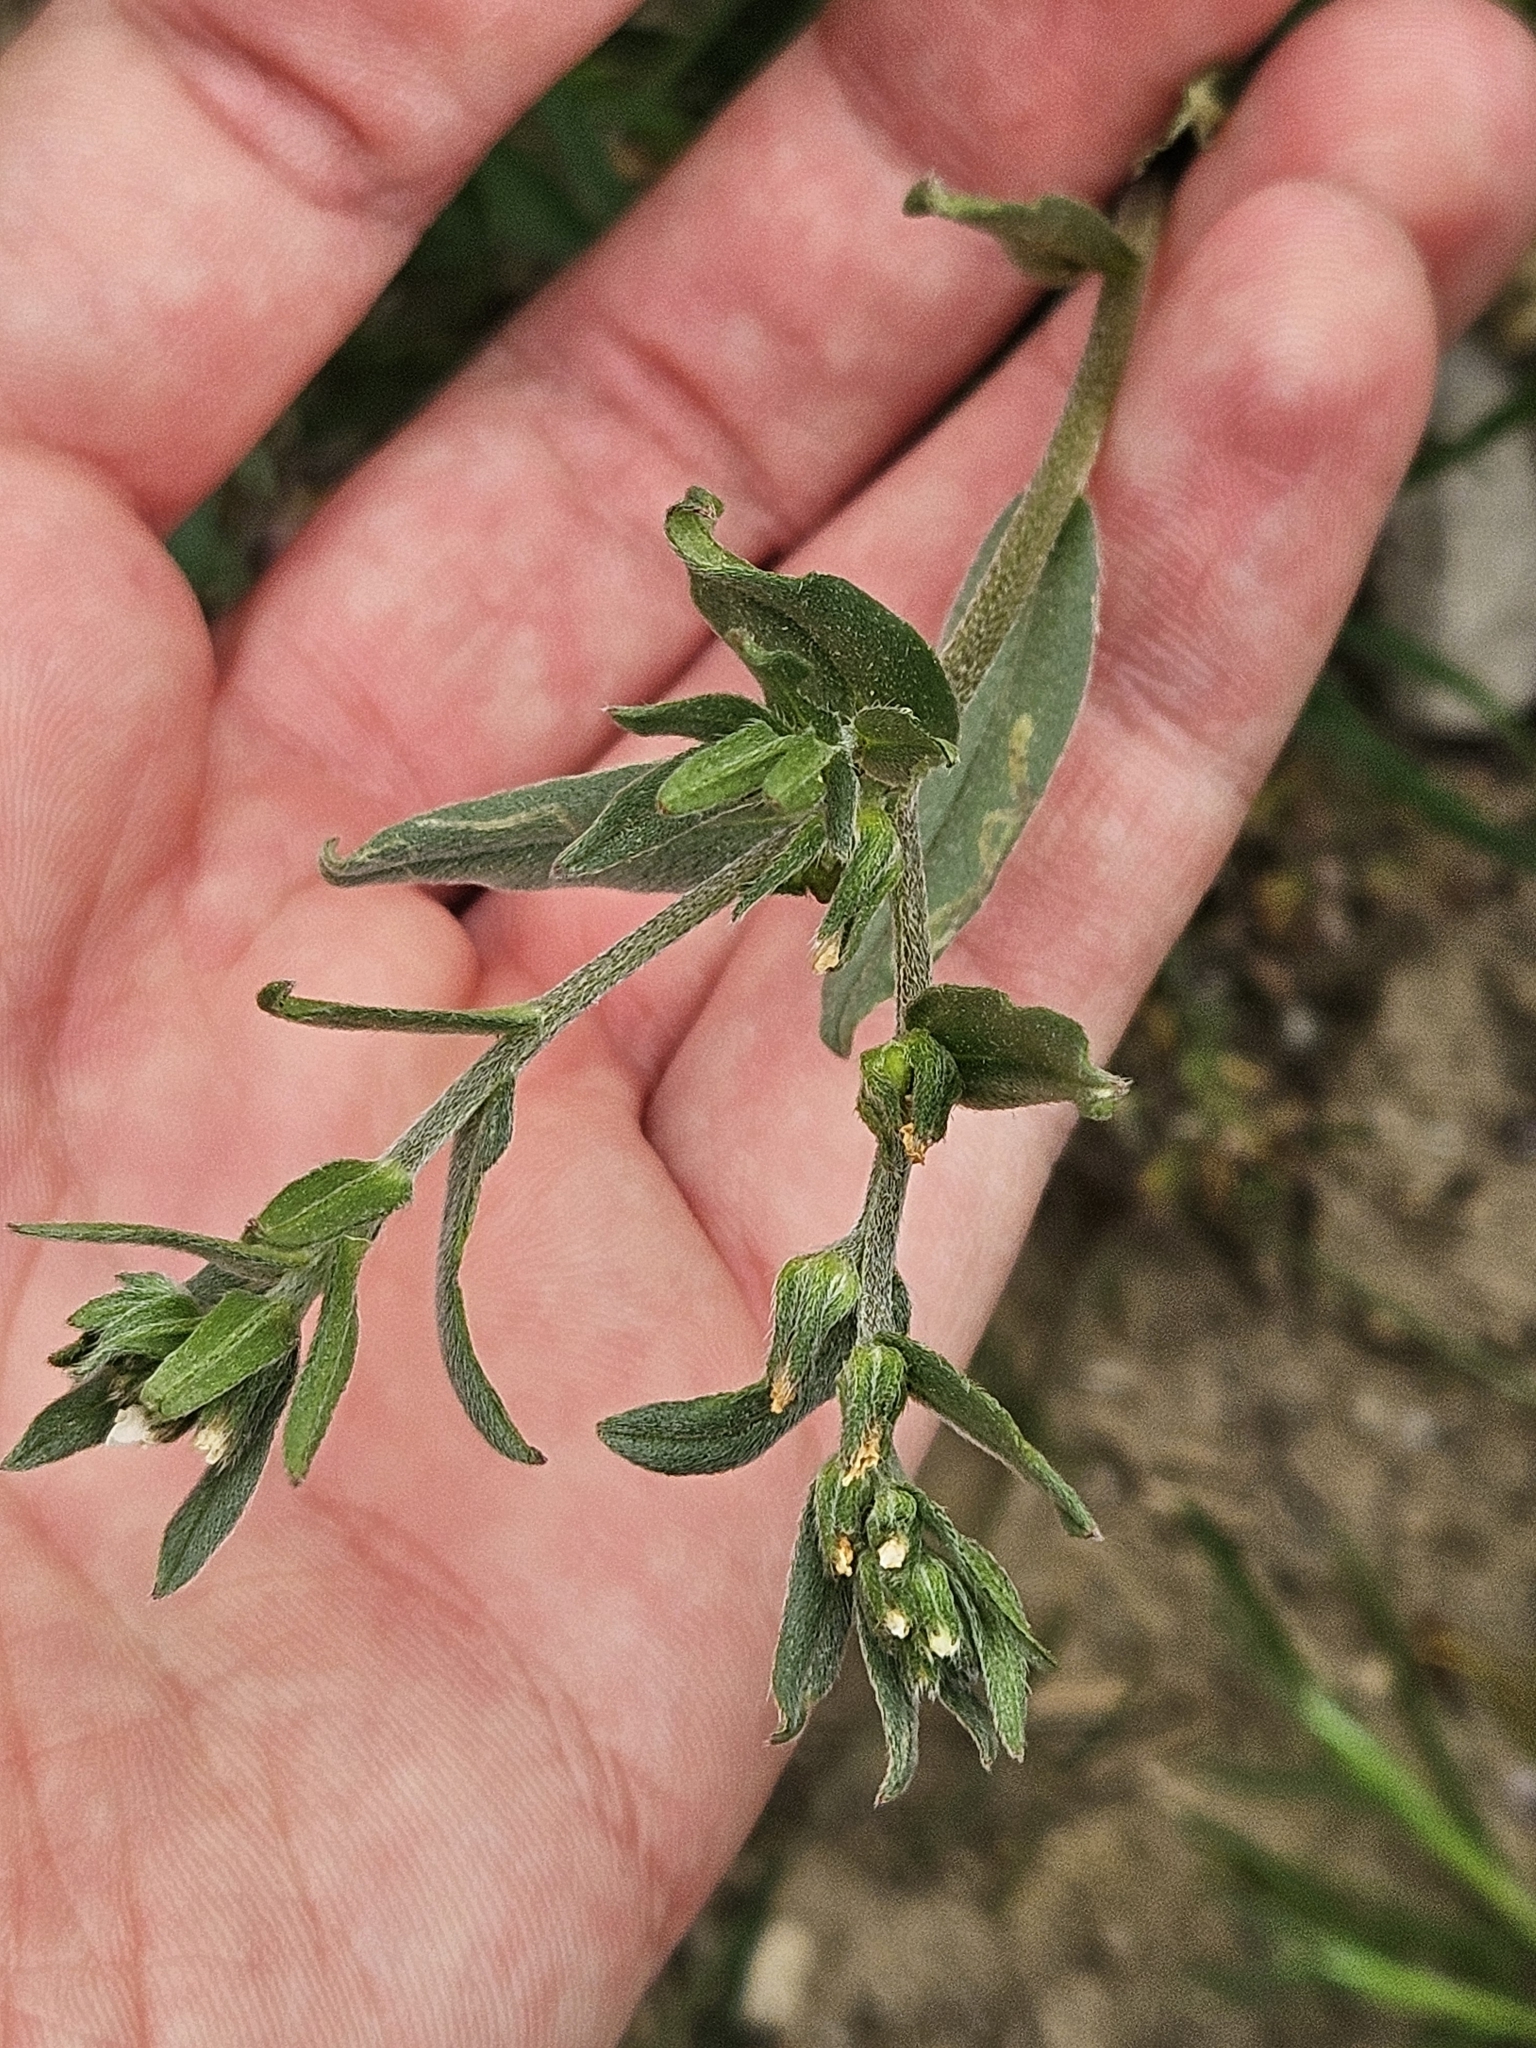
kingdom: Plantae
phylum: Tracheophyta
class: Magnoliopsida
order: Boraginales
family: Boraginaceae
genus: Buglossoides
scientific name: Buglossoides arvensis
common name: Corn gromwell
